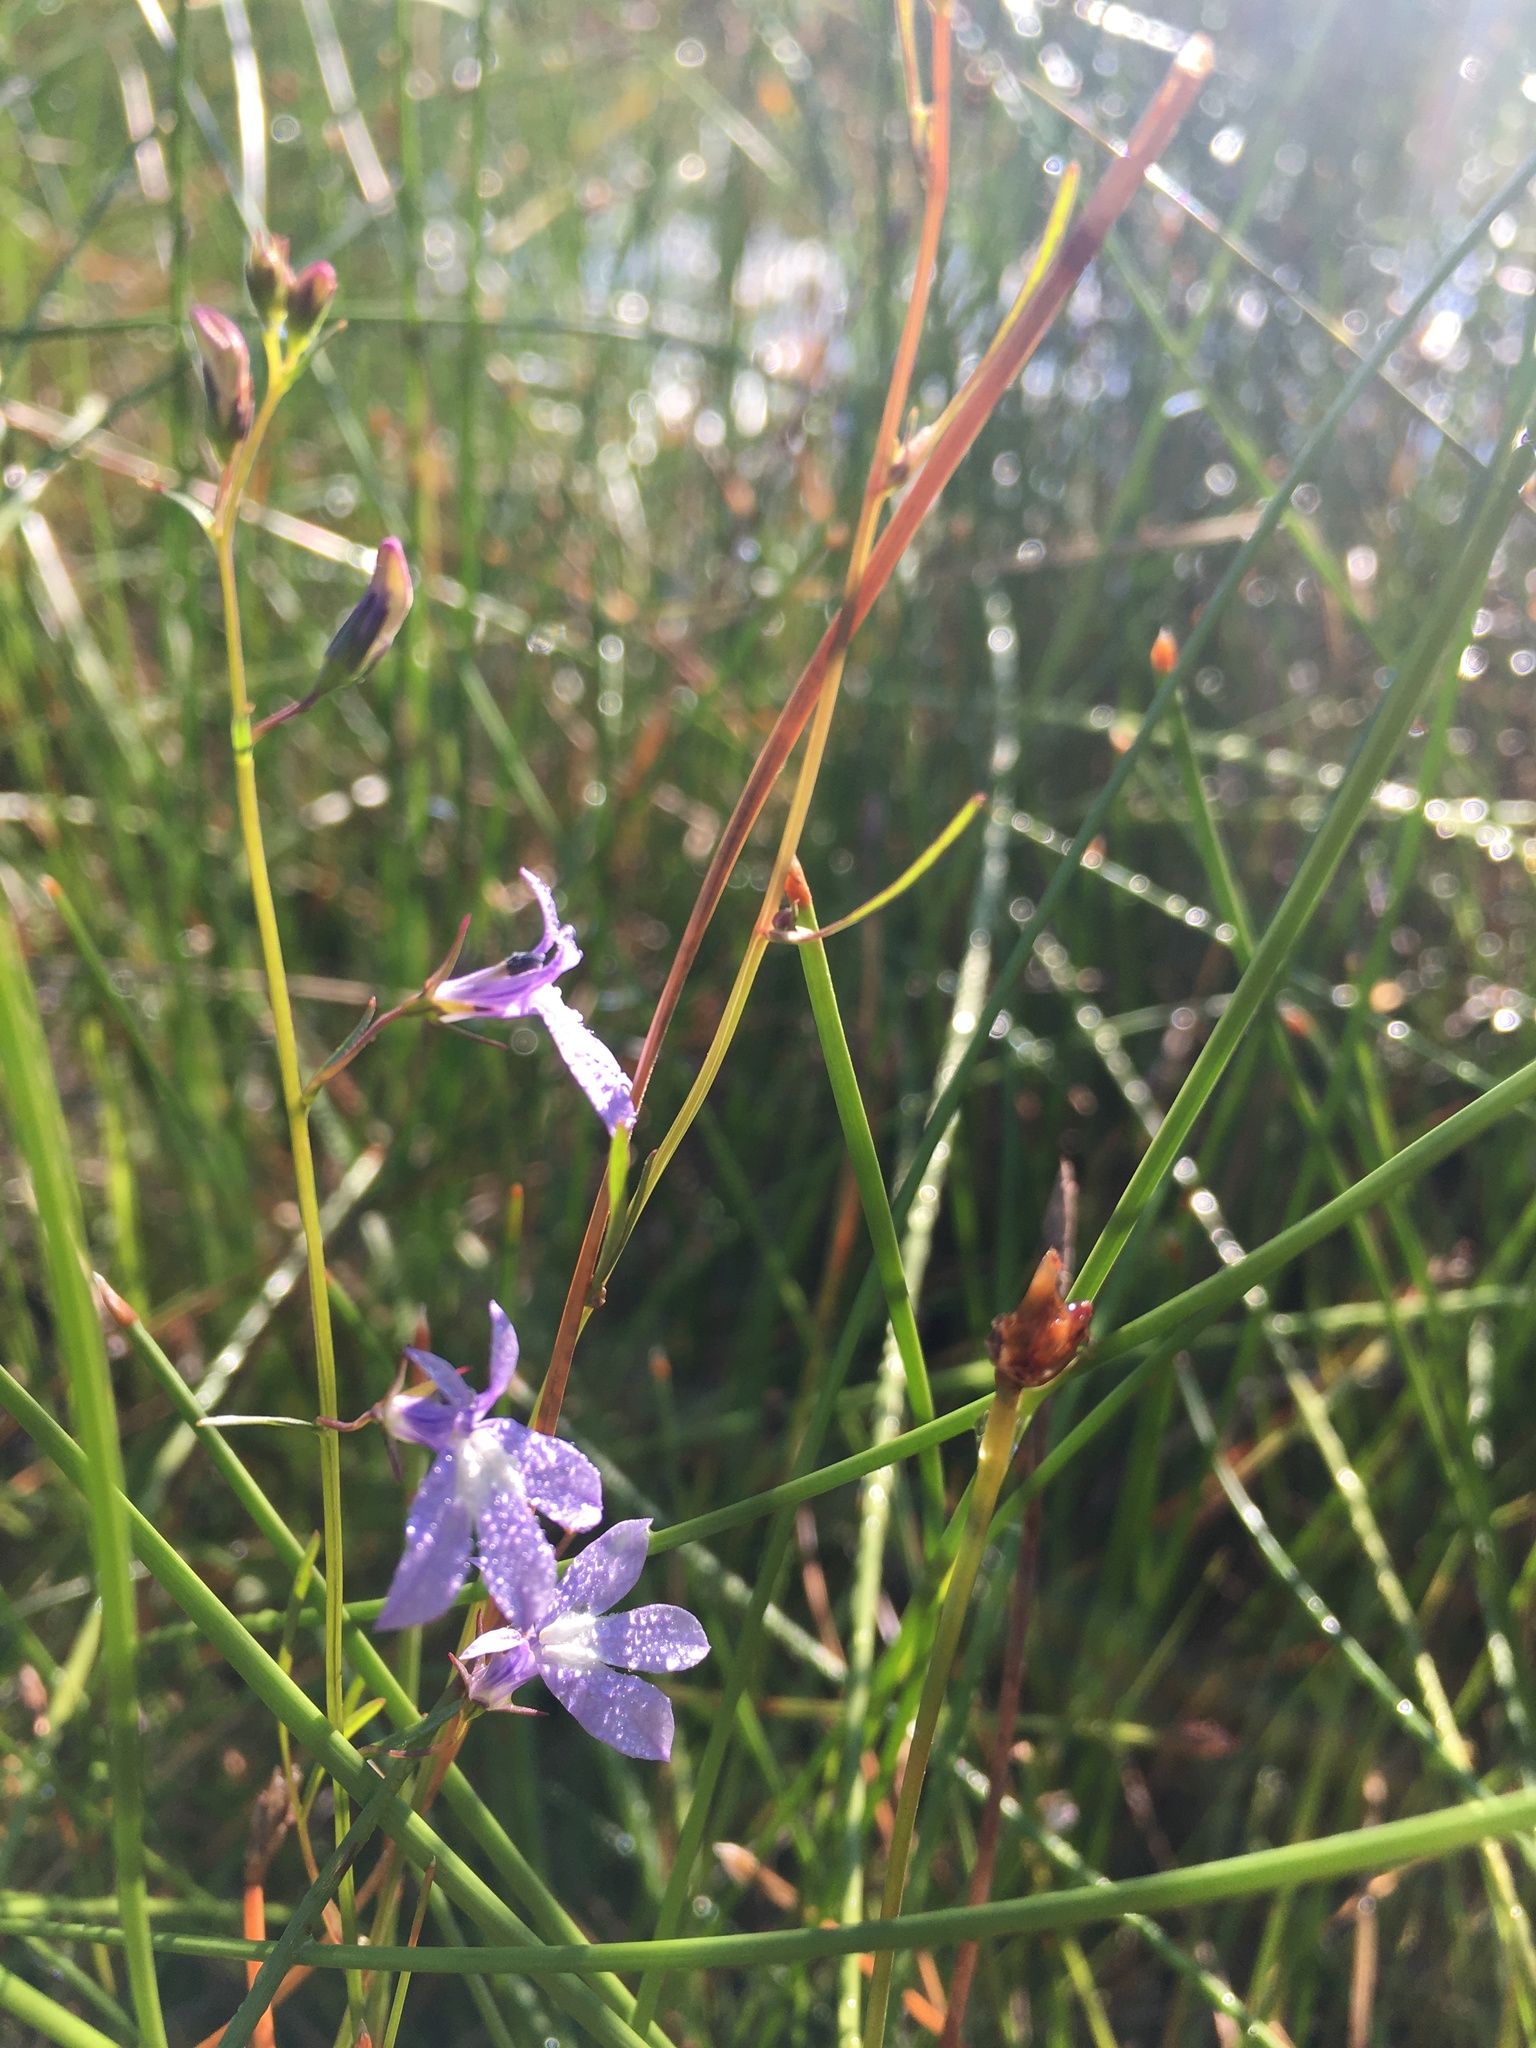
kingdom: Plantae
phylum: Tracheophyta
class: Magnoliopsida
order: Asterales
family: Campanulaceae
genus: Lobelia
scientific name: Lobelia kalmii
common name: Kalm's lobelia
